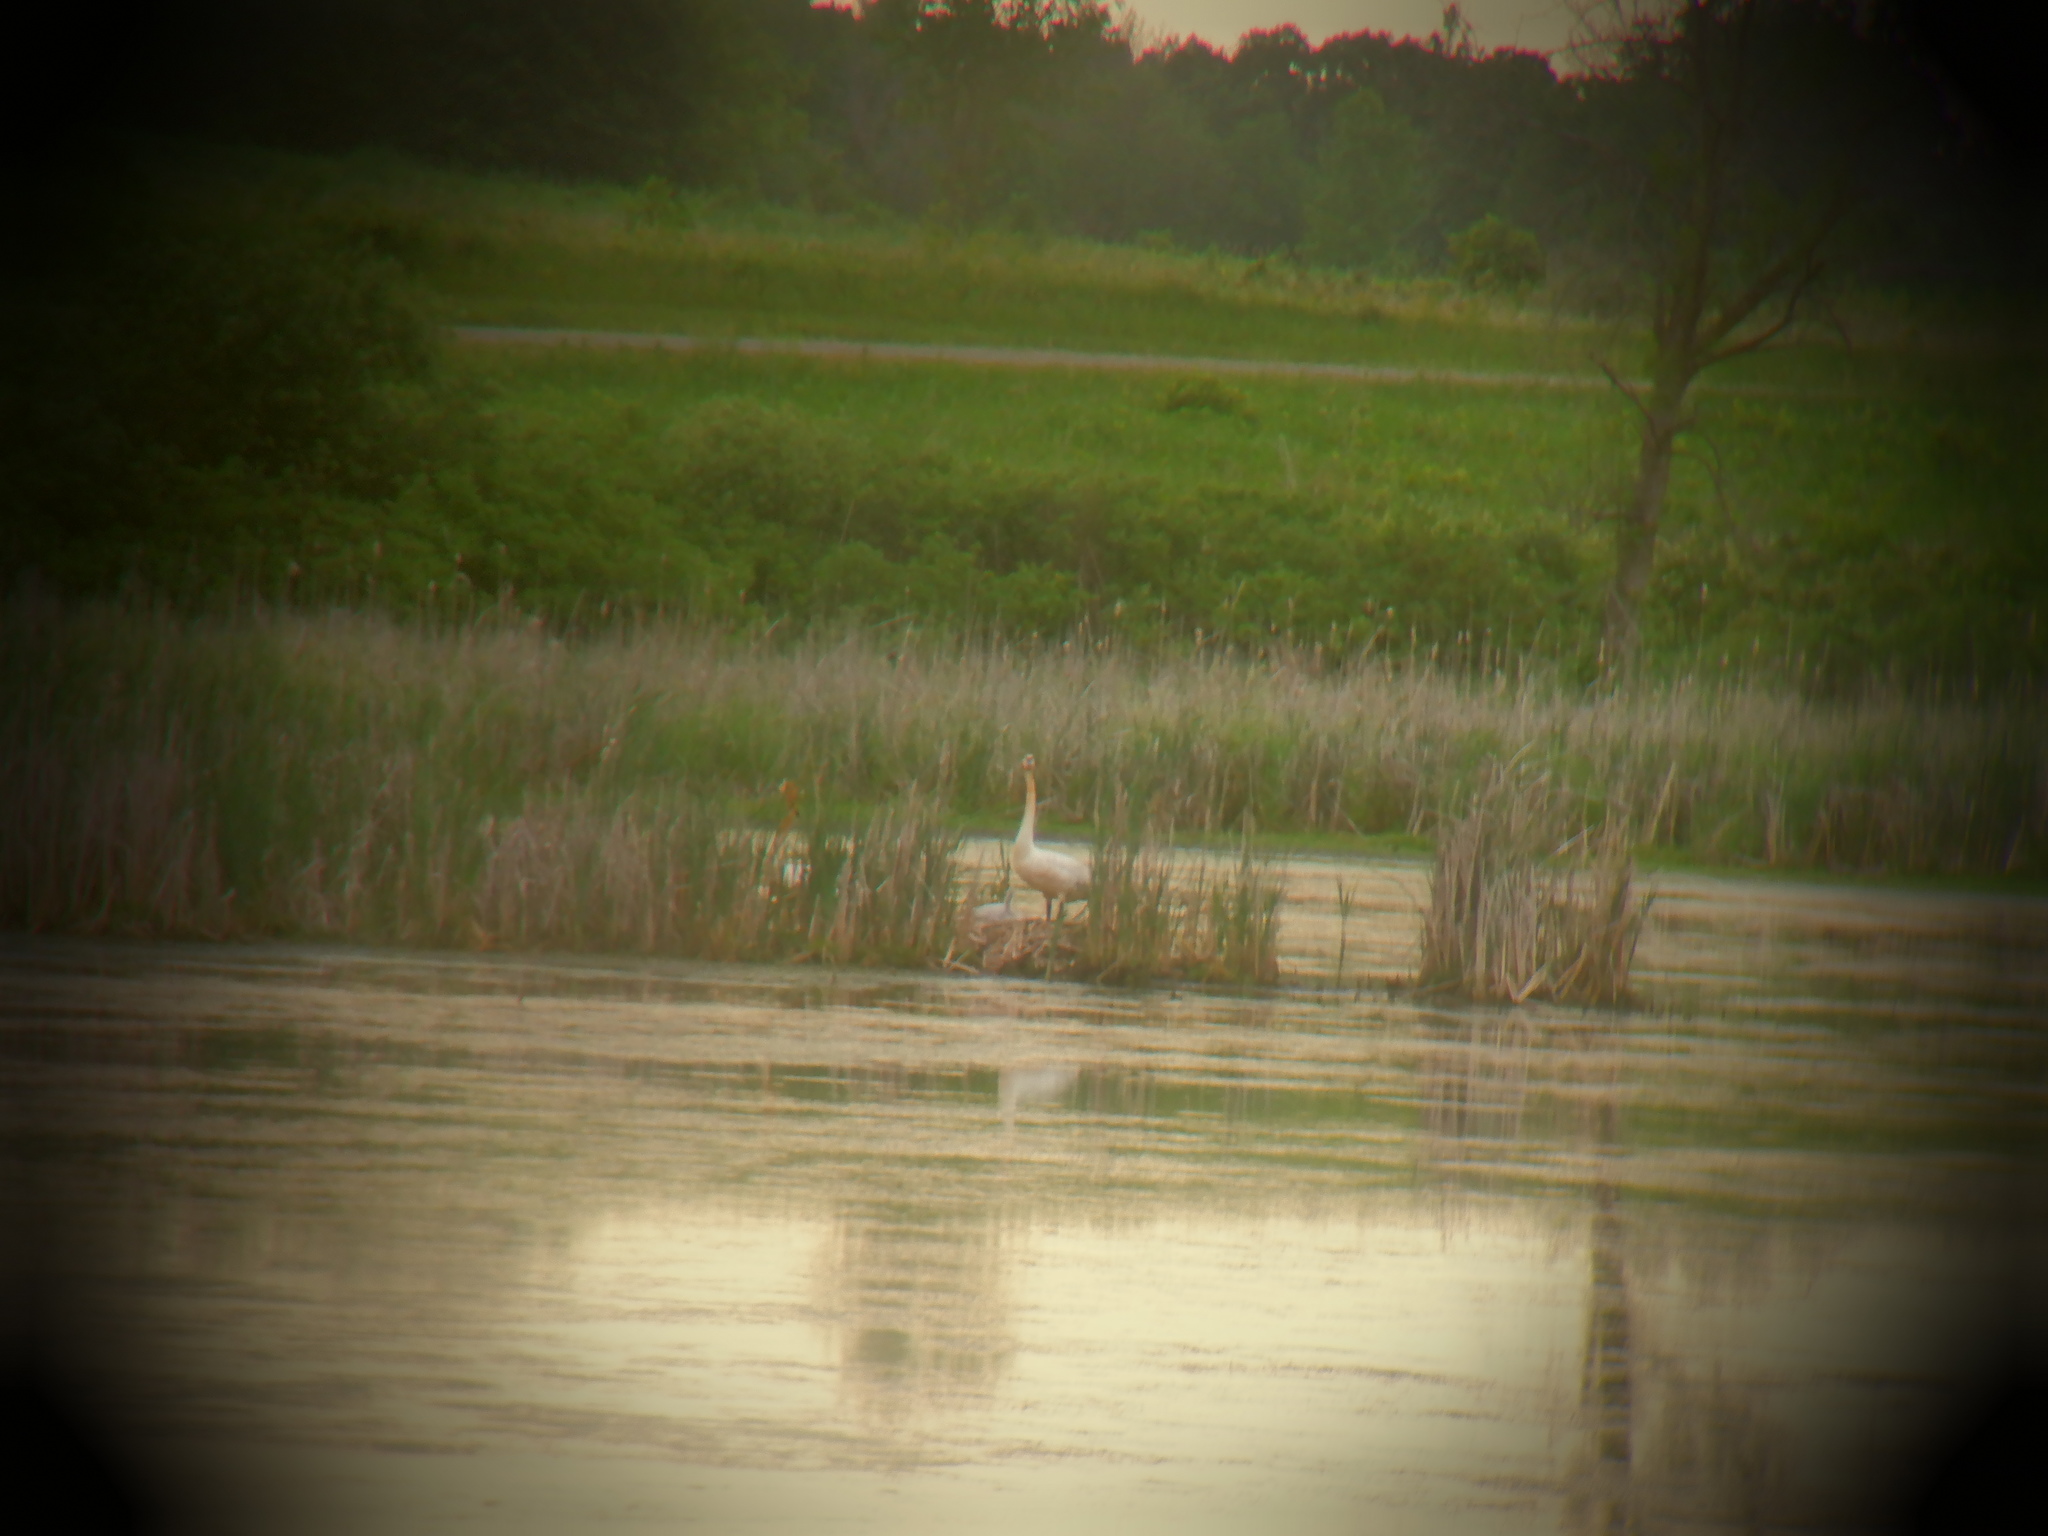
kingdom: Animalia
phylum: Chordata
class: Aves
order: Anseriformes
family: Anatidae
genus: Cygnus
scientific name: Cygnus buccinator
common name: Trumpeter swan
